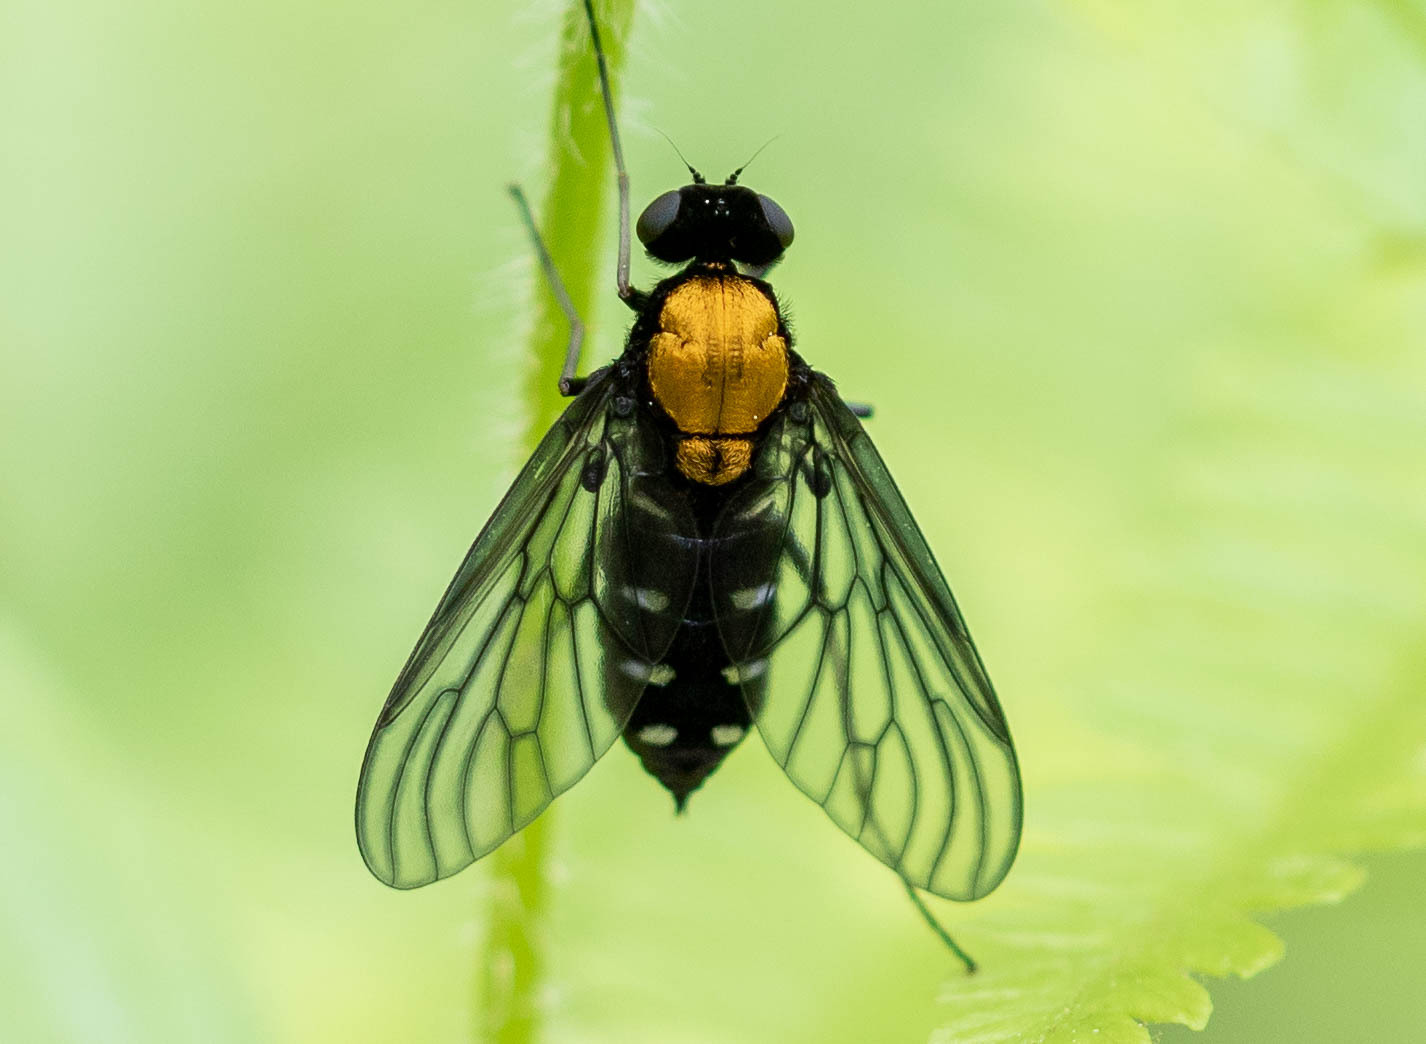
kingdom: Animalia
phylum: Arthropoda
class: Insecta
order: Diptera
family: Rhagionidae
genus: Chrysopilus
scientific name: Chrysopilus thoracicus
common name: Golden-backed snipe fly
